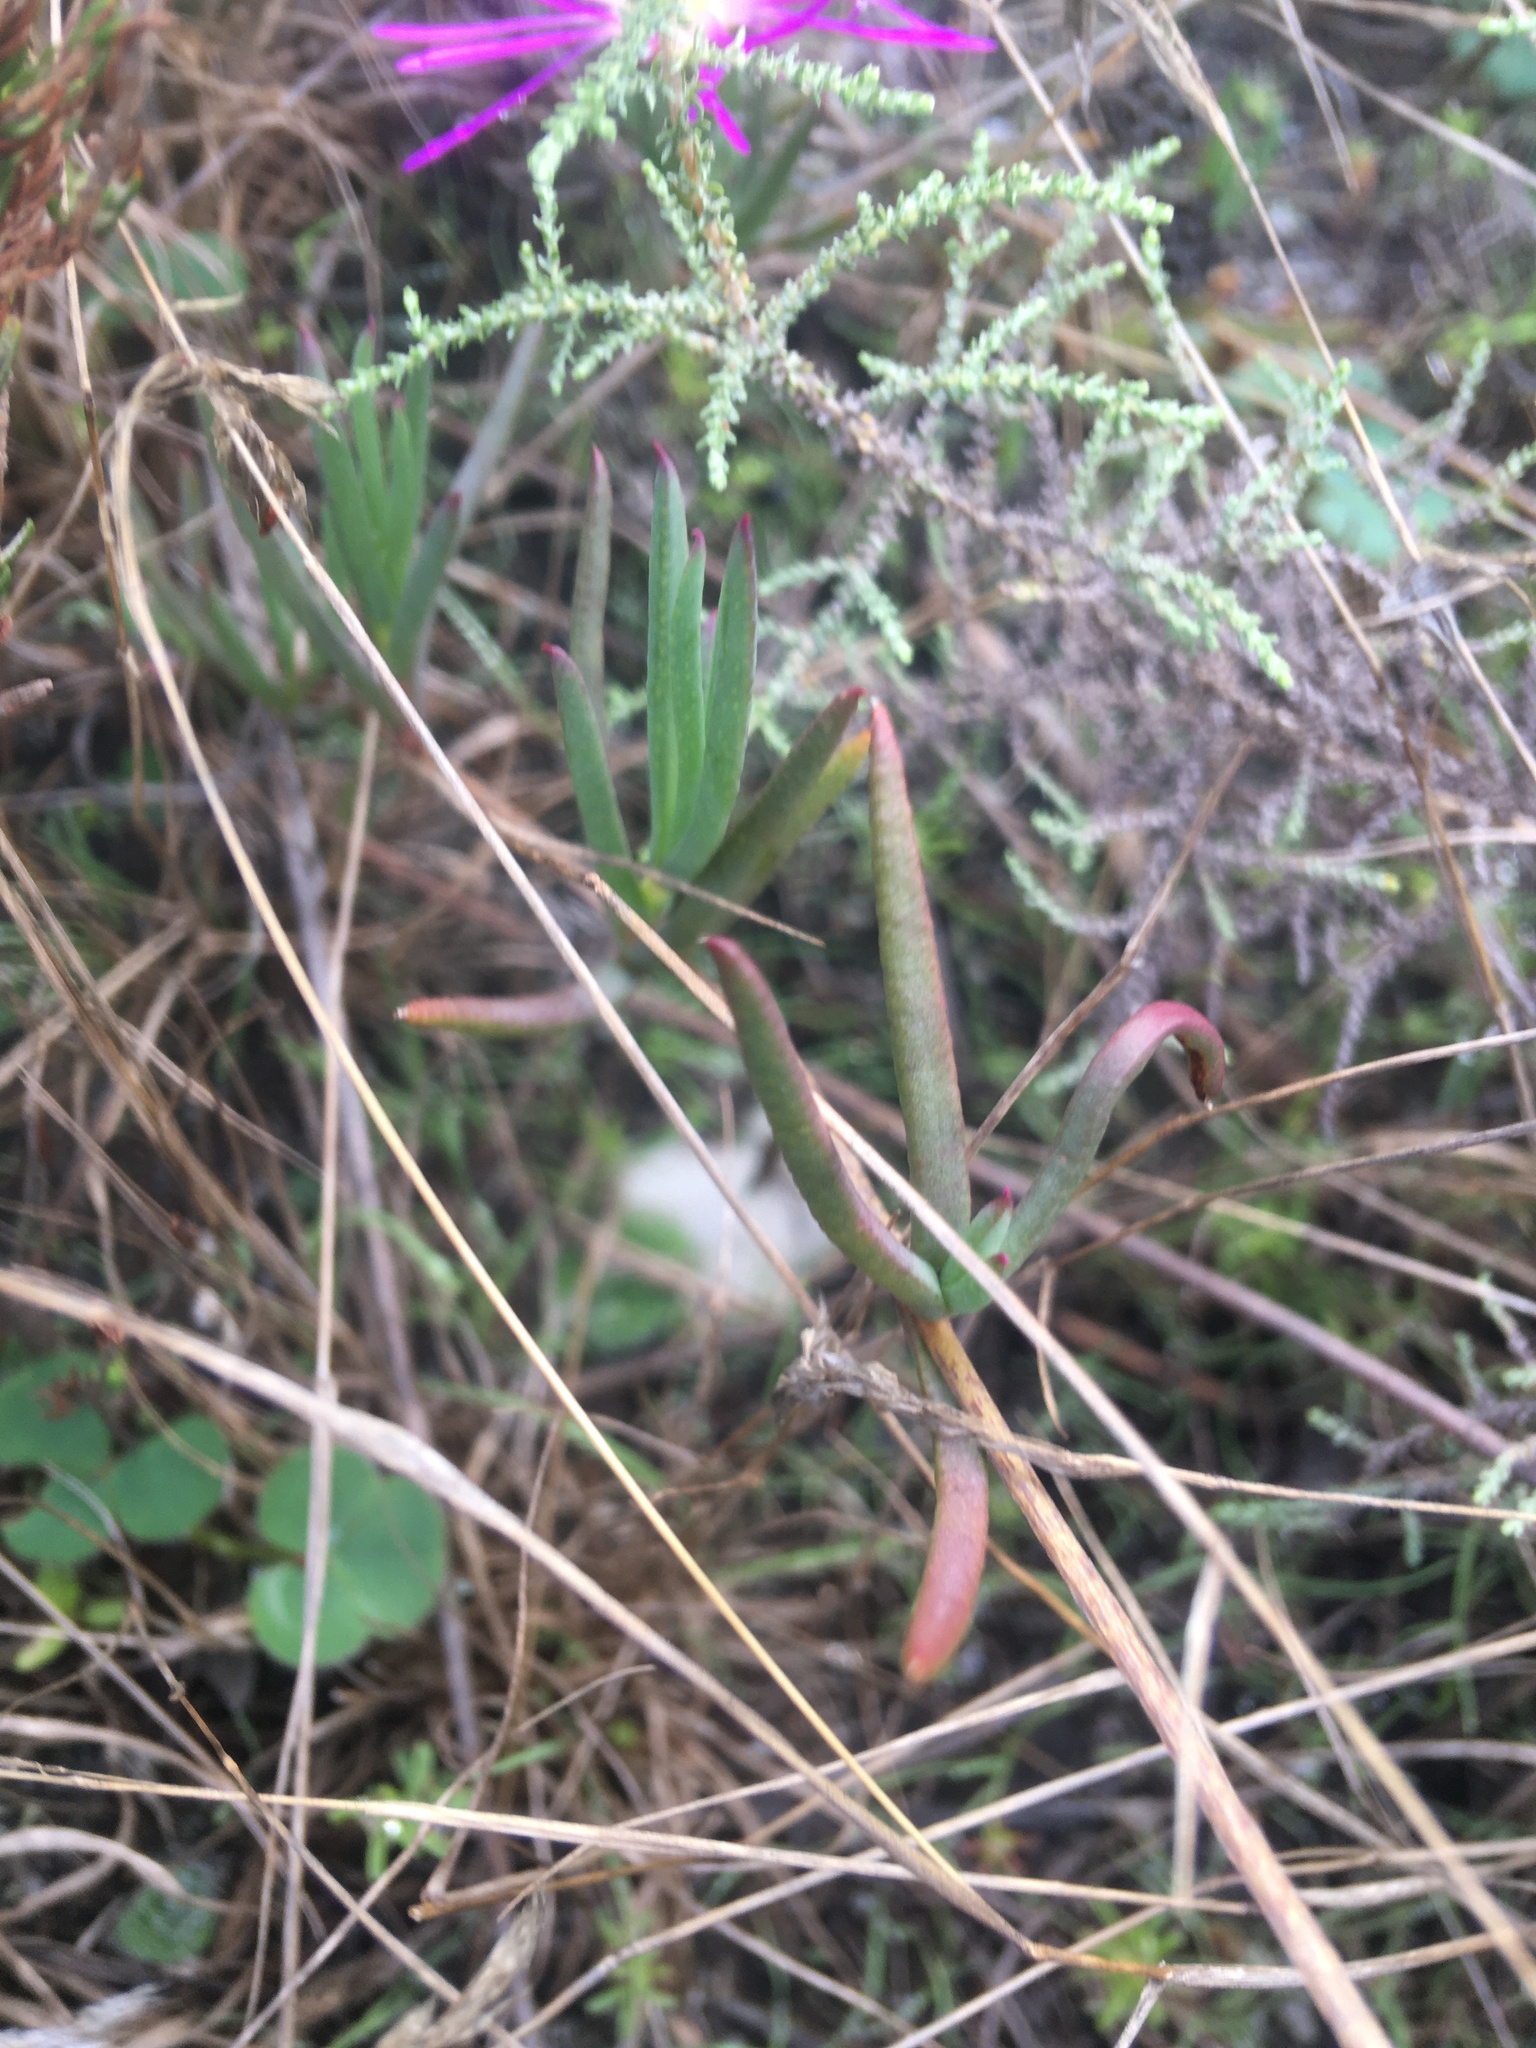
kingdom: Plantae
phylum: Tracheophyta
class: Magnoliopsida
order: Caryophyllales
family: Aizoaceae
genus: Erepsia
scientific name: Erepsia aspera
